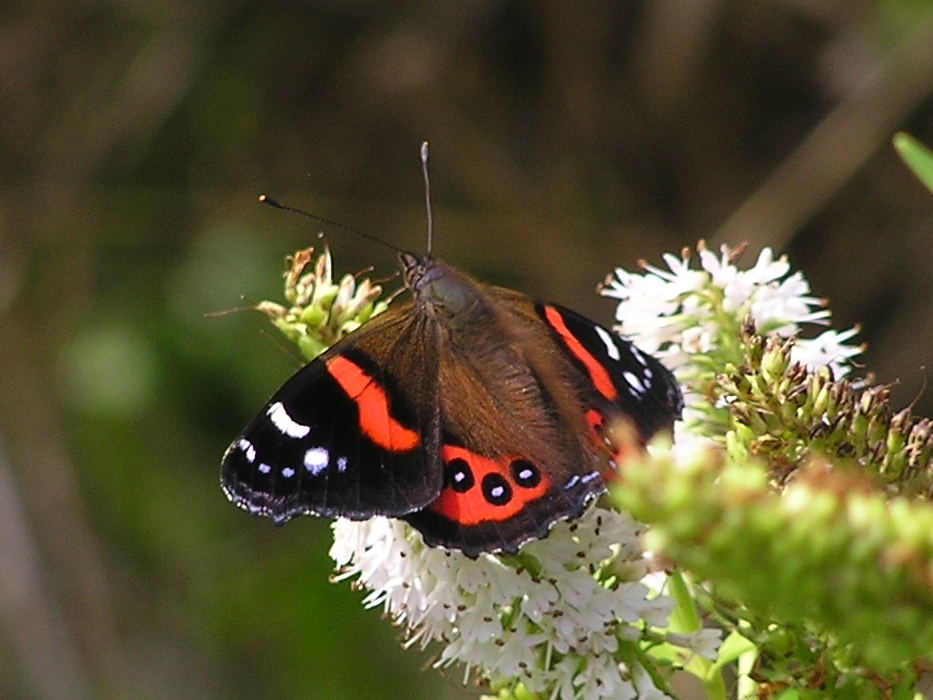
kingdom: Animalia
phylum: Arthropoda
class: Insecta
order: Lepidoptera
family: Nymphalidae
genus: Vanessa
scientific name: Vanessa gonerilla
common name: New zealand red admiral
